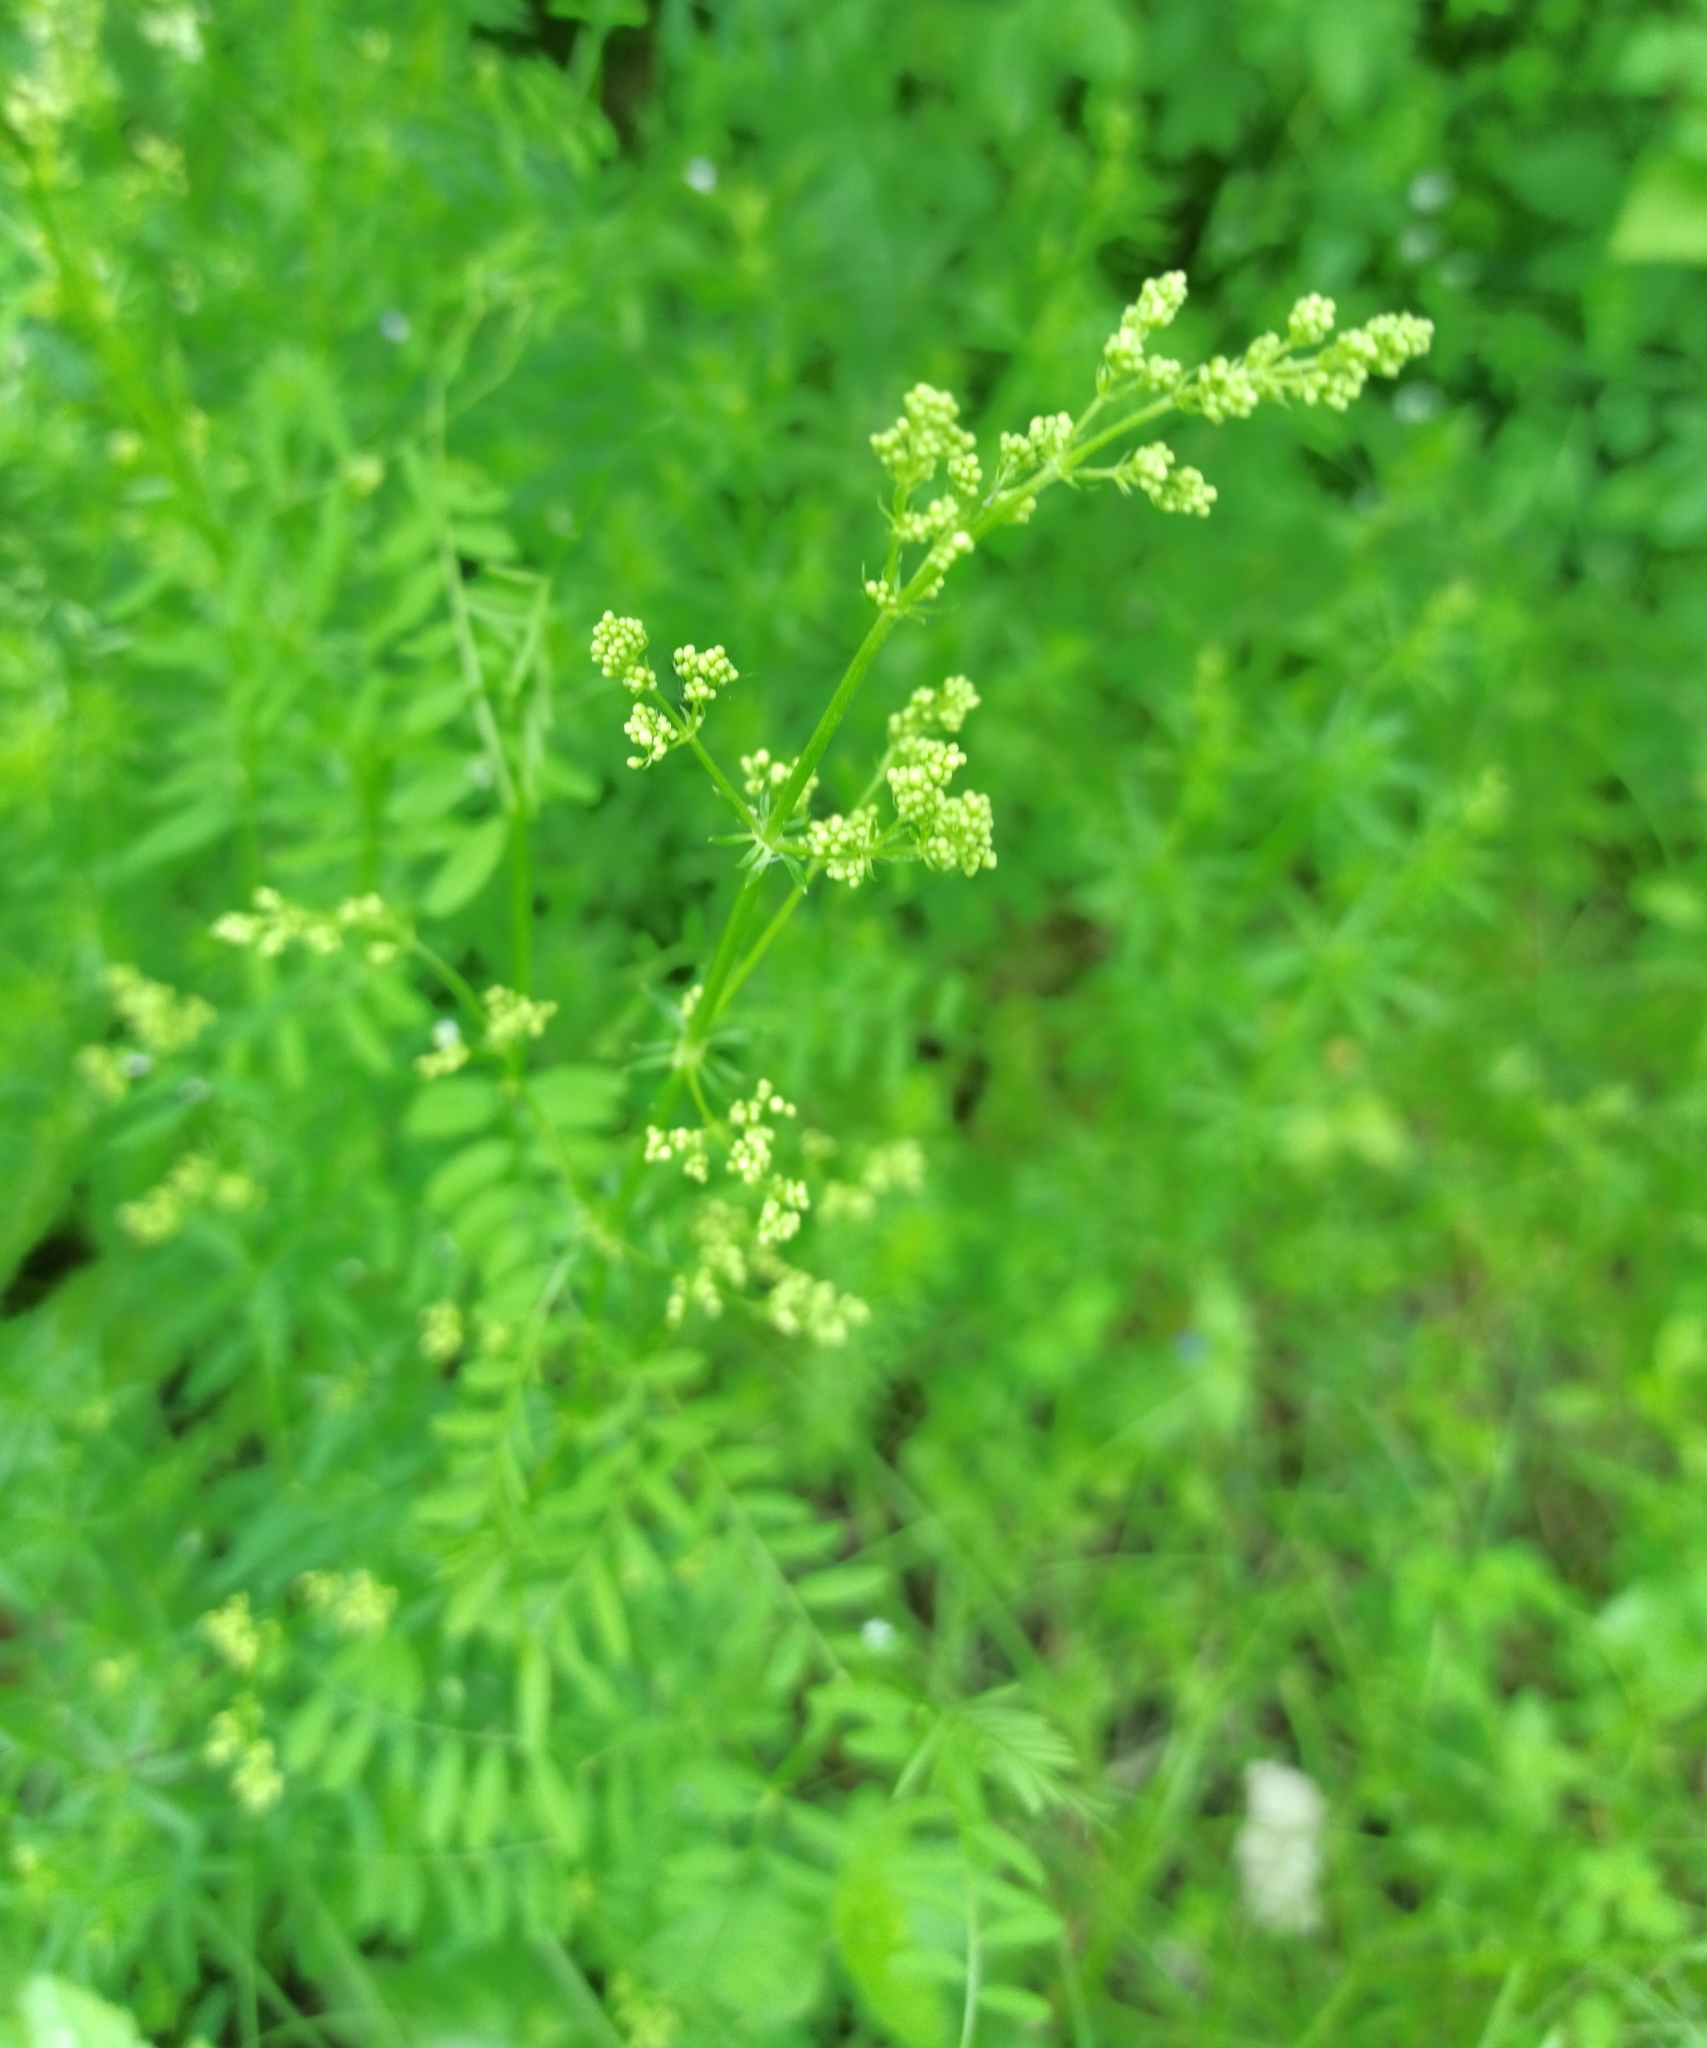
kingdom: Plantae
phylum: Tracheophyta
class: Magnoliopsida
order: Gentianales
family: Rubiaceae
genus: Galium
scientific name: Galium mollugo
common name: Hedge bedstraw
